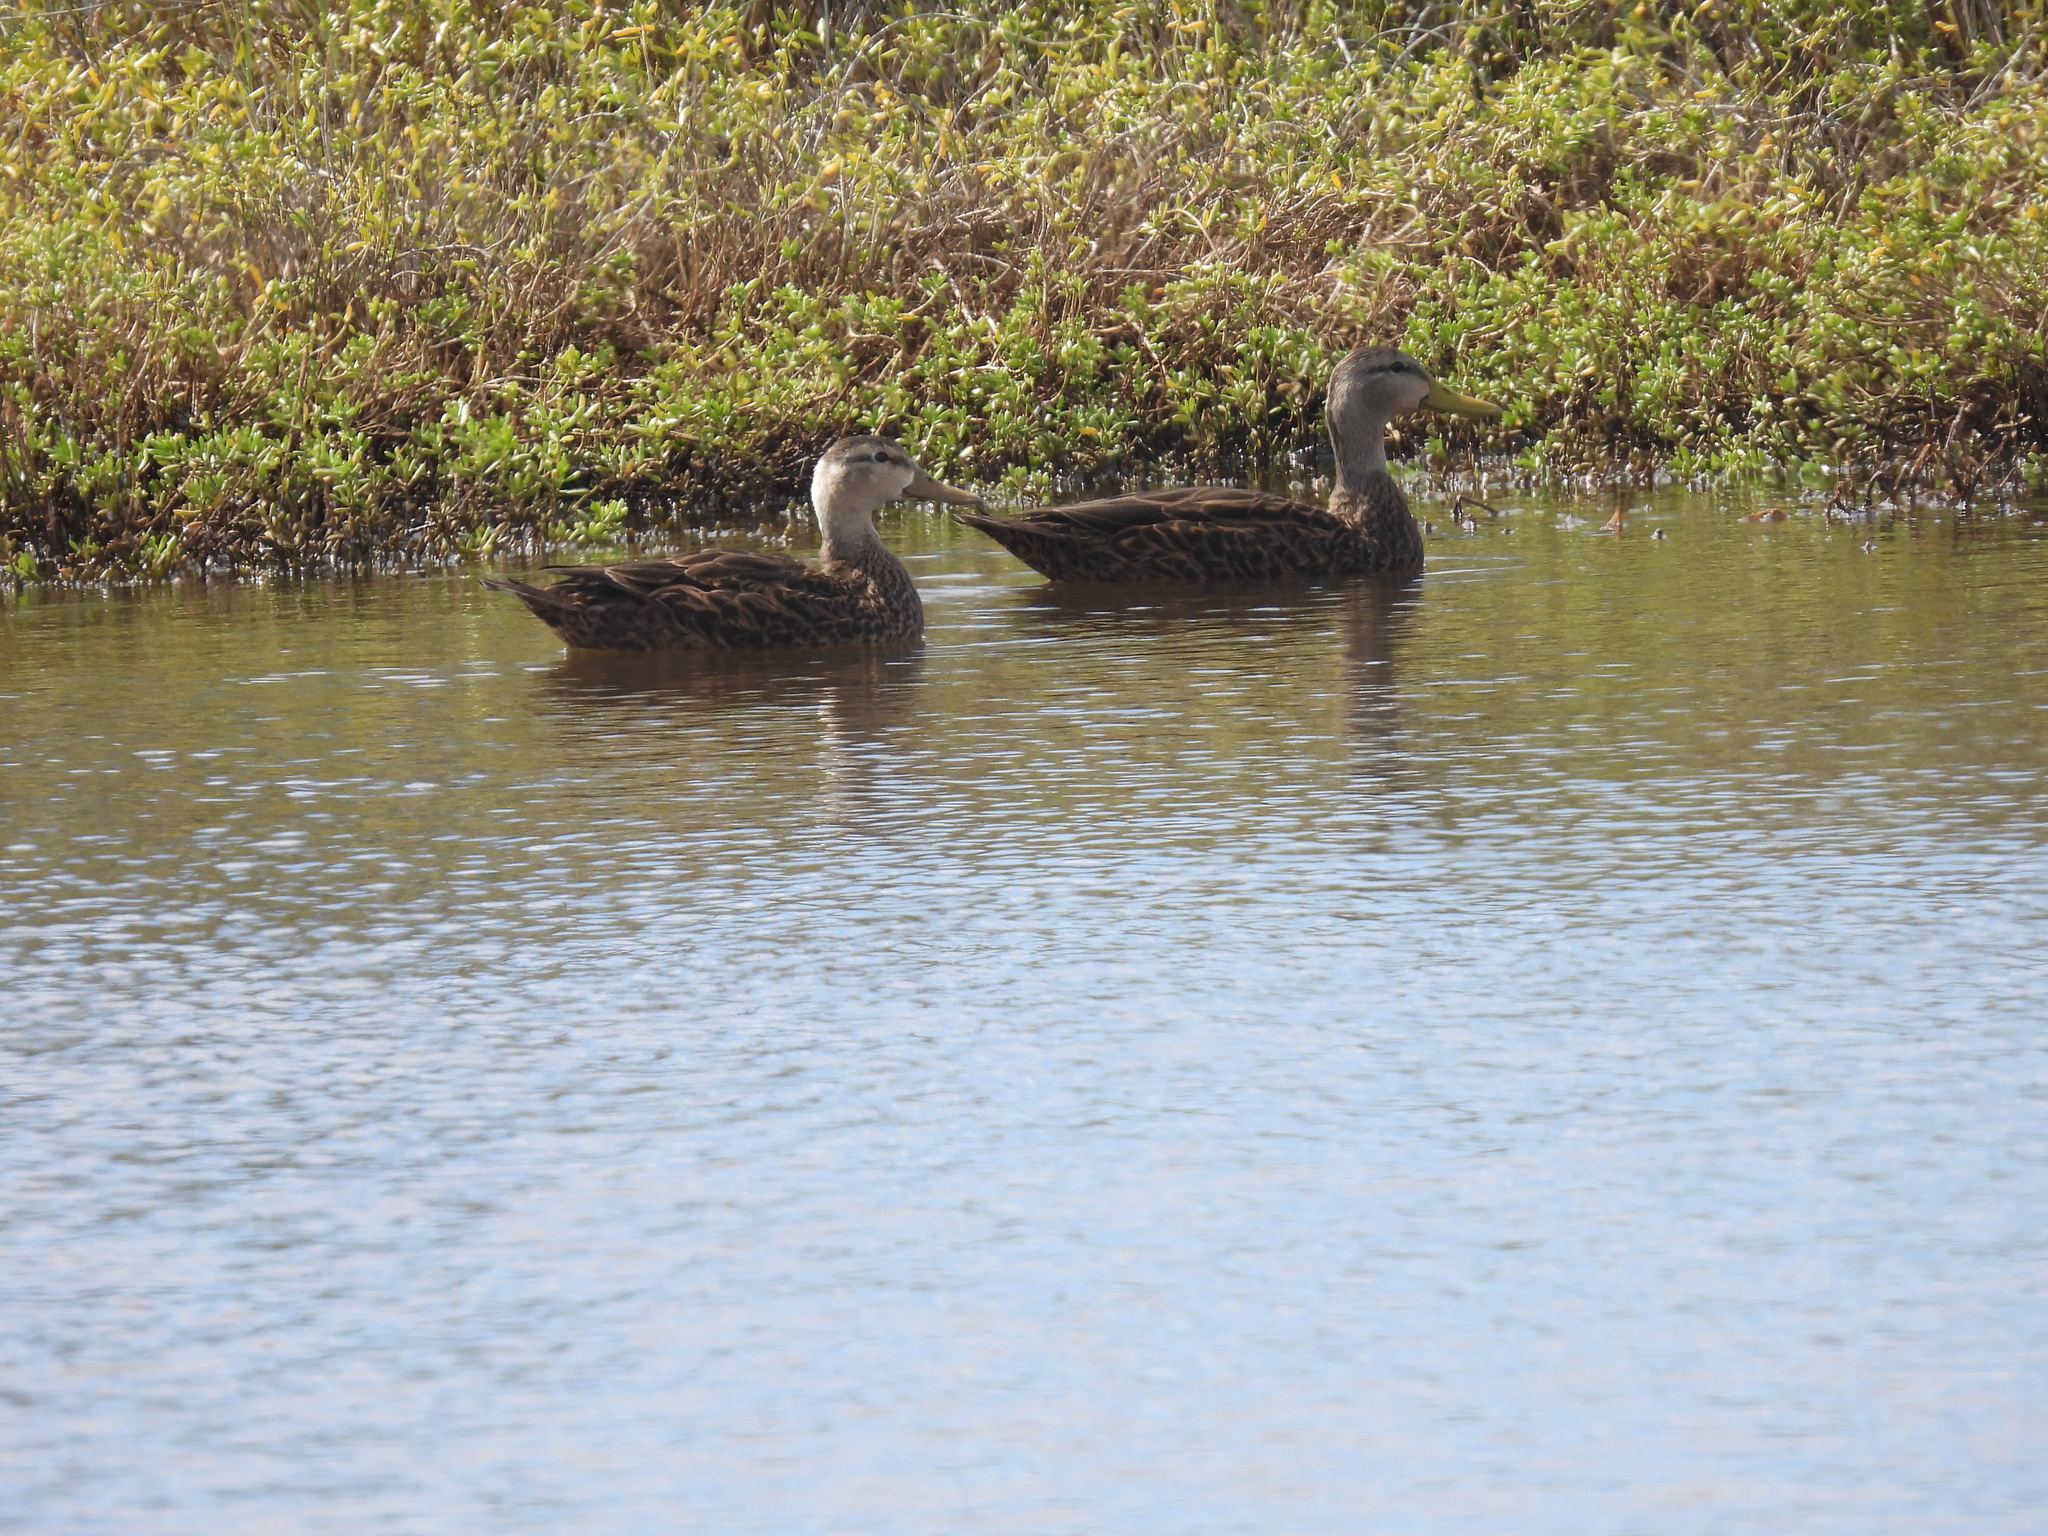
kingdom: Animalia
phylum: Chordata
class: Aves
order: Anseriformes
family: Anatidae
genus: Anas
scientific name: Anas fulvigula
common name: Mottled duck
